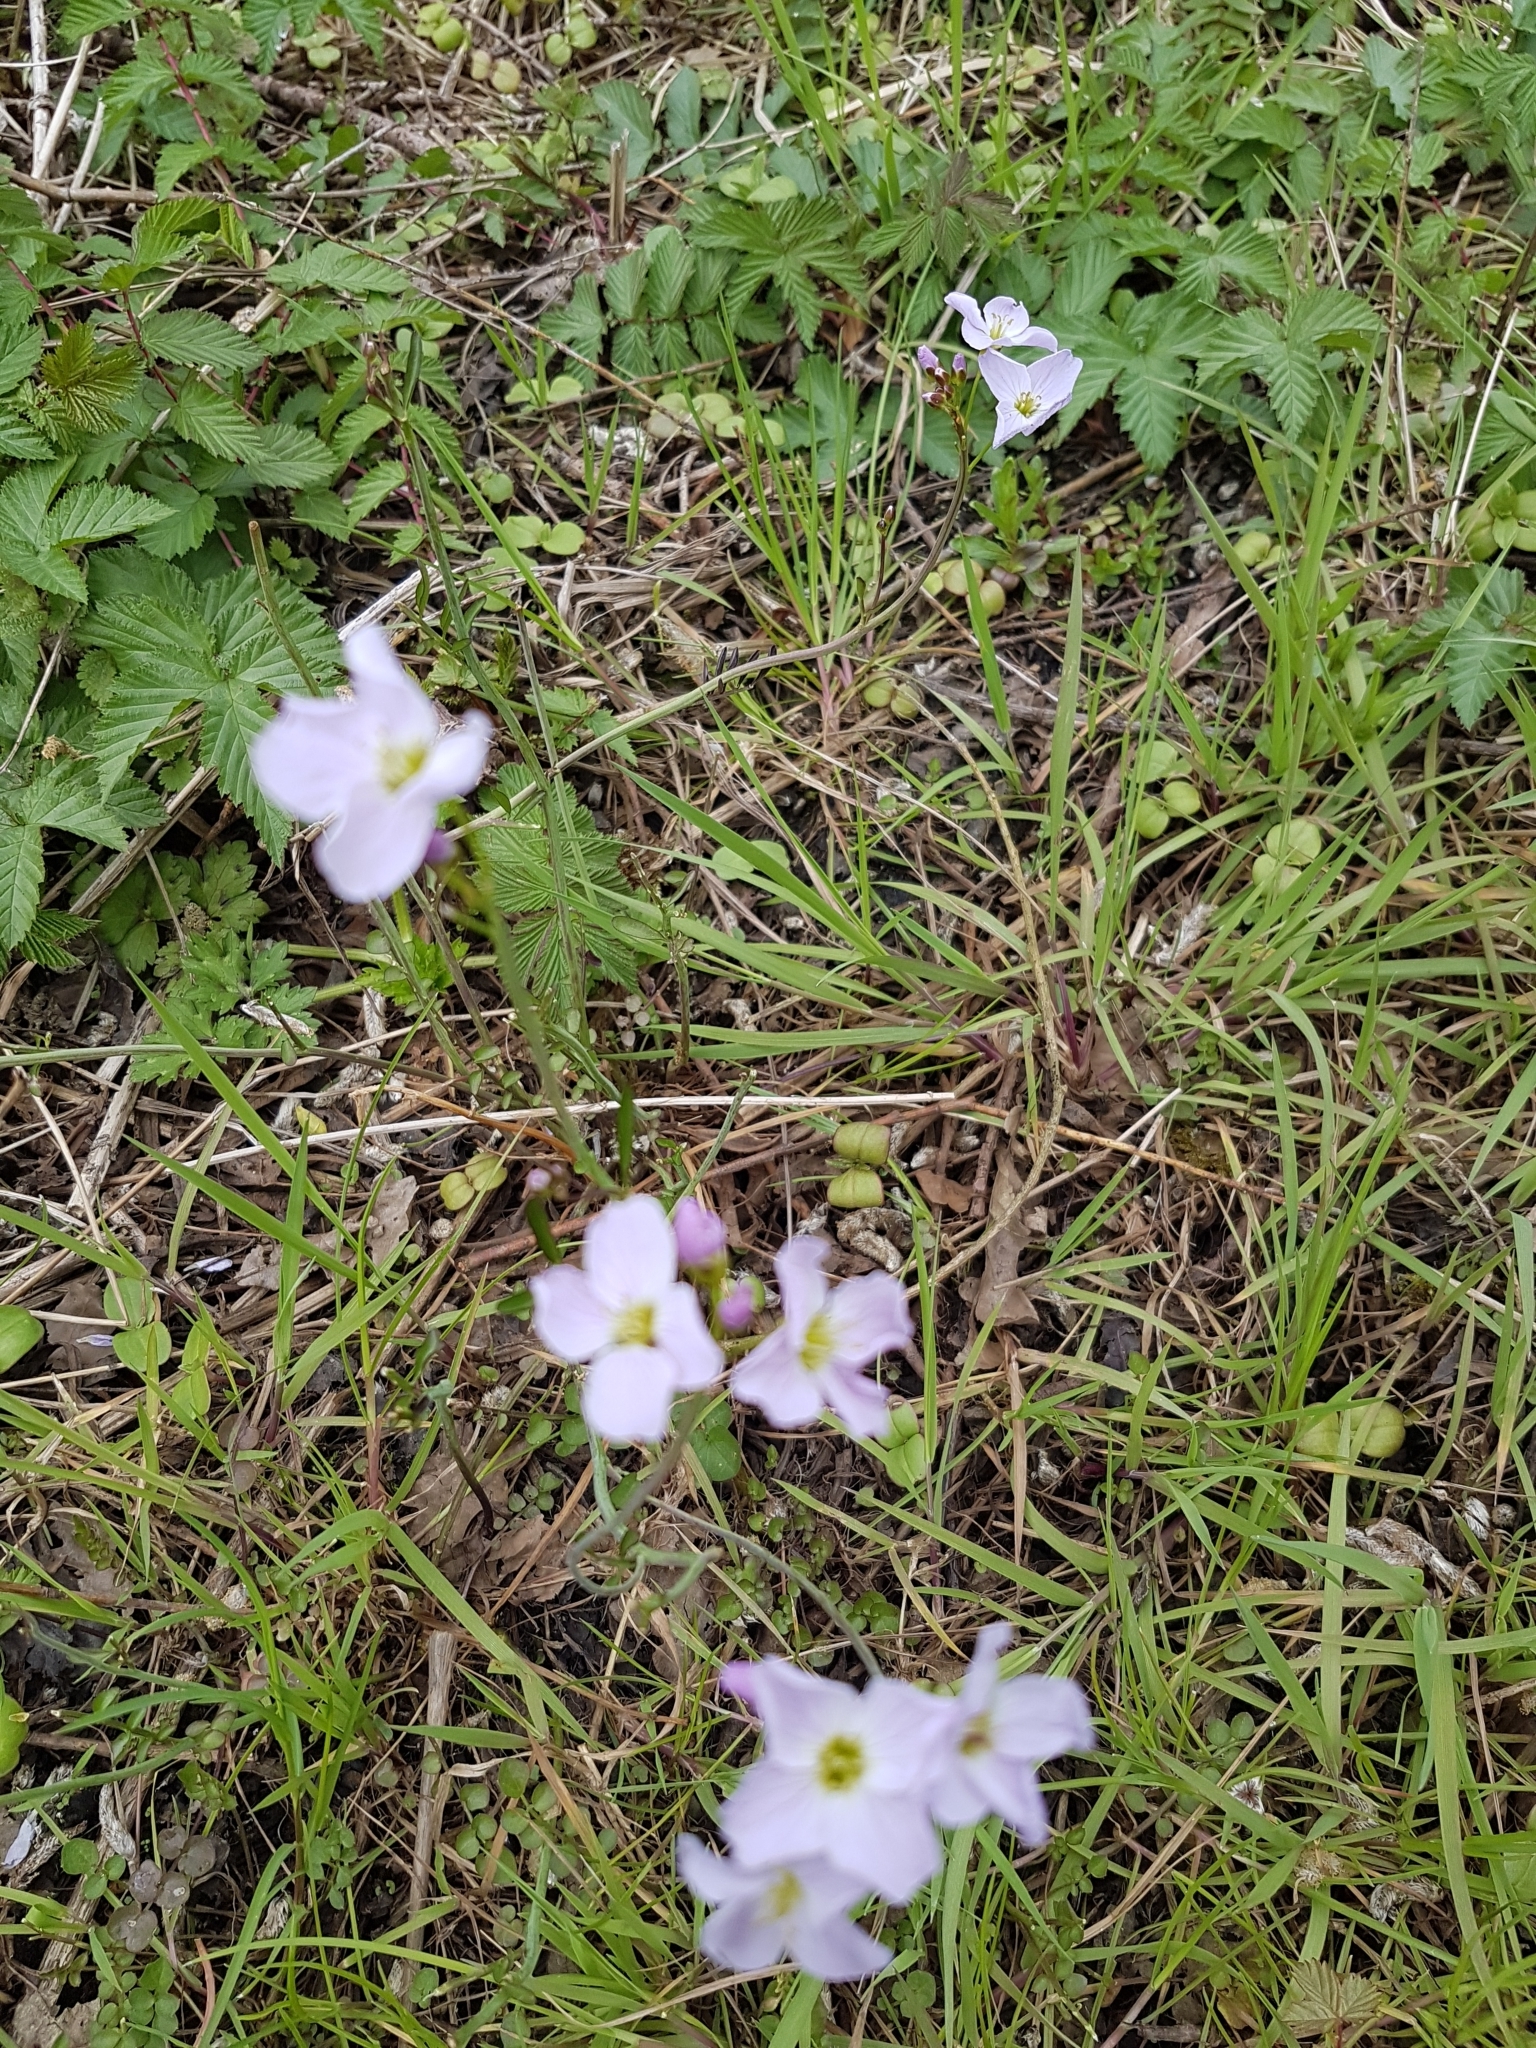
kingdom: Plantae
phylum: Tracheophyta
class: Magnoliopsida
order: Brassicales
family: Brassicaceae
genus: Cardamine
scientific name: Cardamine pratensis
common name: Cuckoo flower
